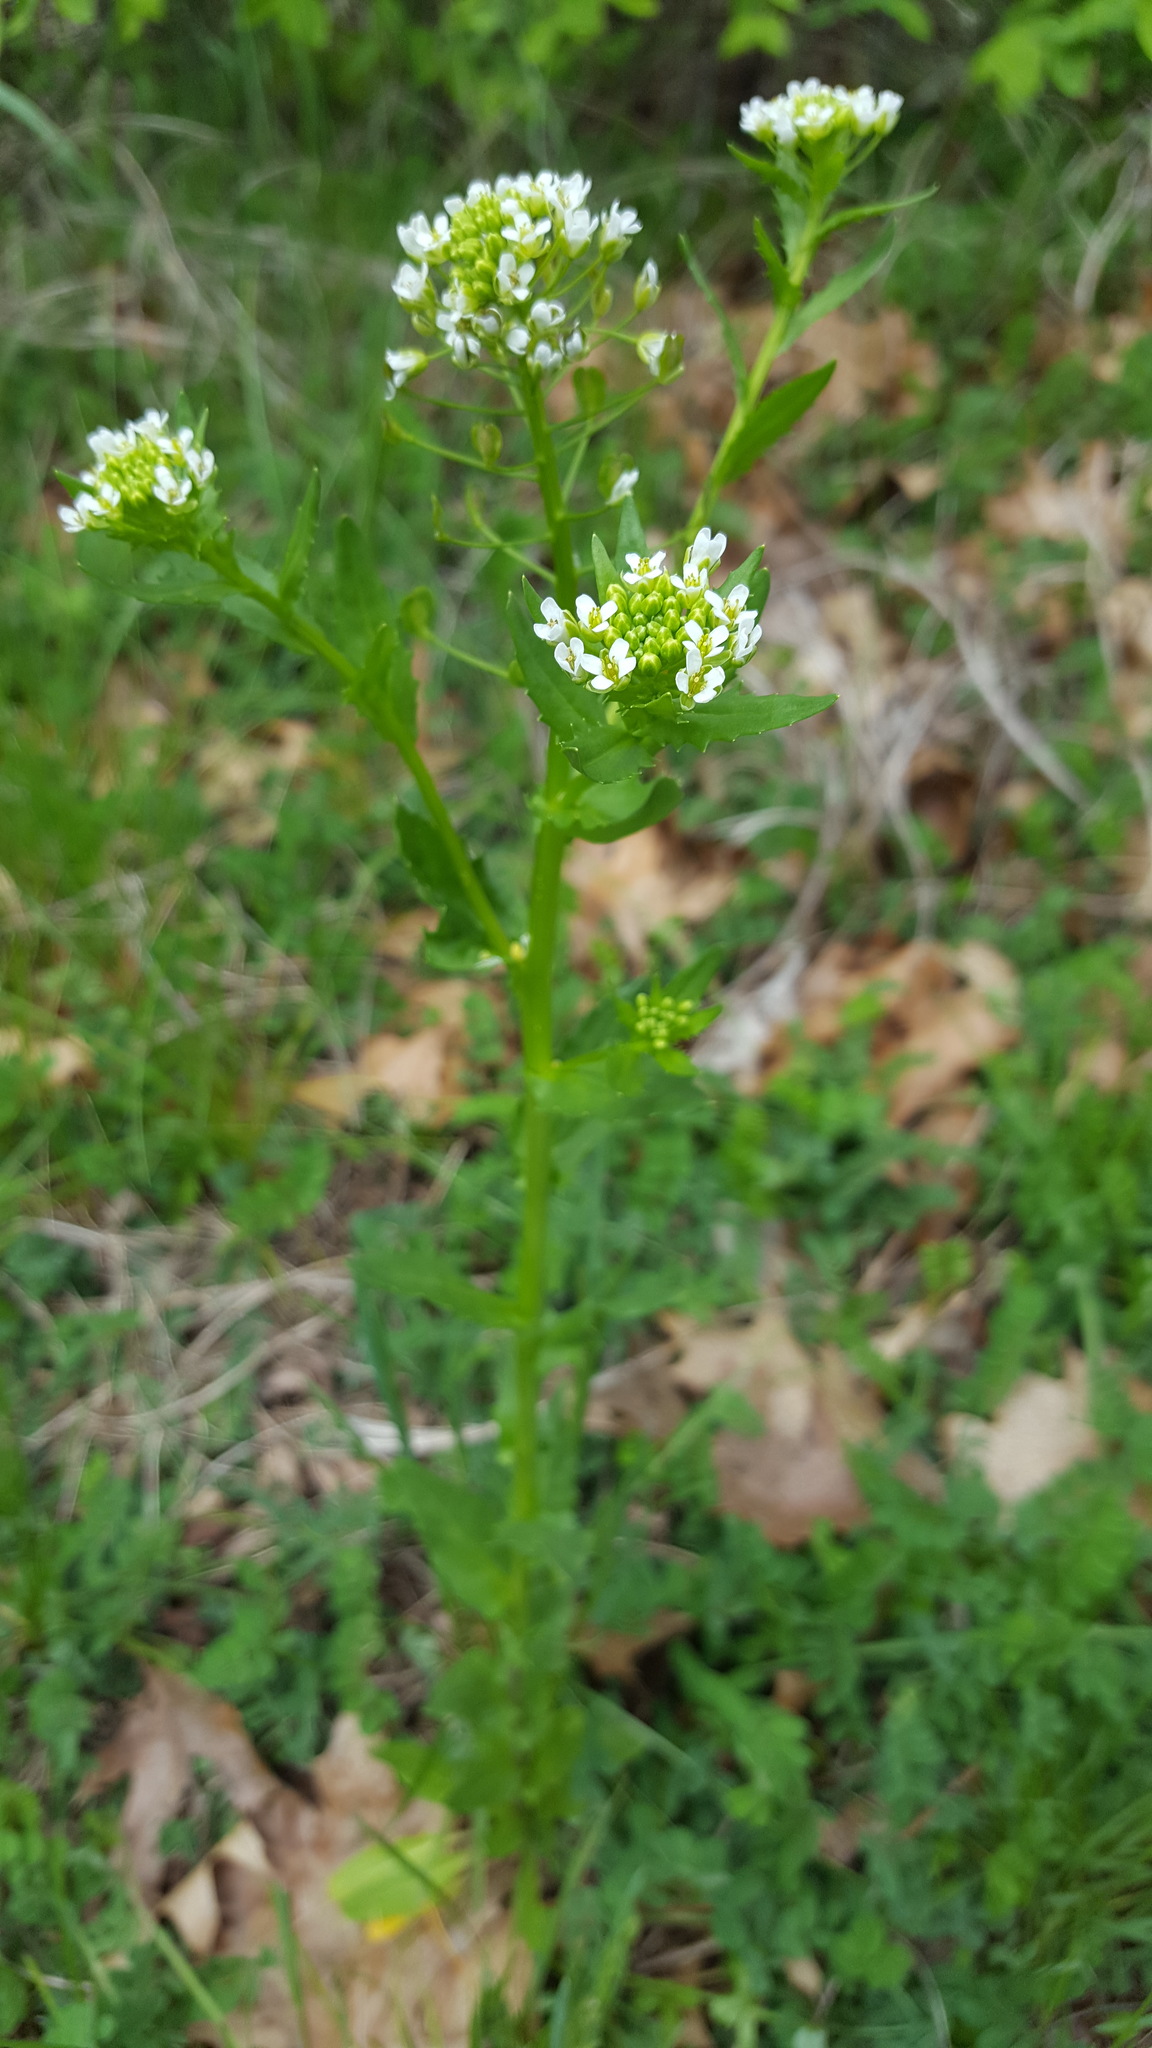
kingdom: Plantae
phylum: Tracheophyta
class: Magnoliopsida
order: Brassicales
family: Brassicaceae
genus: Thlaspi
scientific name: Thlaspi arvense
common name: Field pennycress
